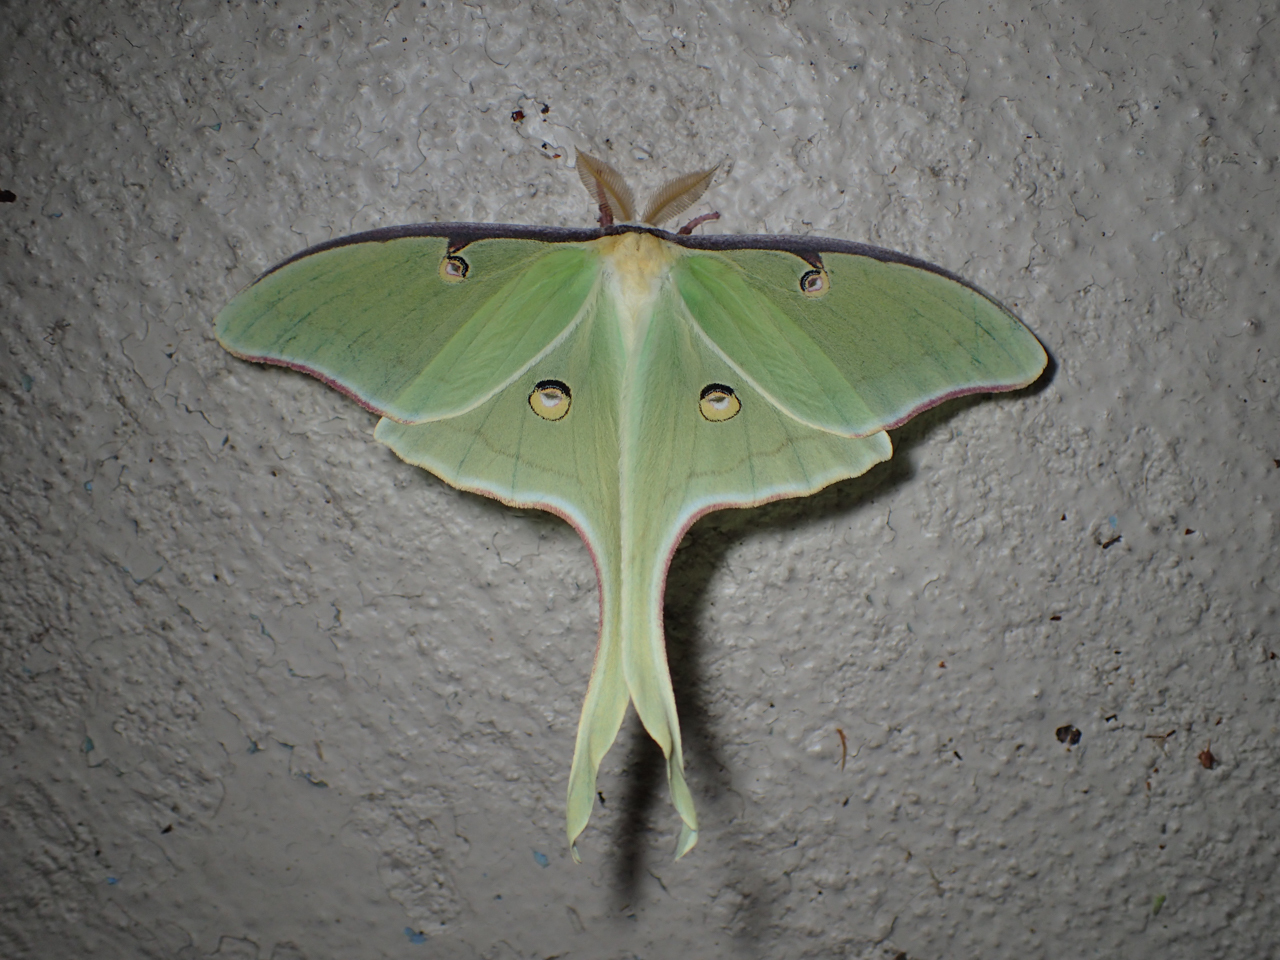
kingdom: Animalia
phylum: Arthropoda
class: Insecta
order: Lepidoptera
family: Saturniidae
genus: Actias
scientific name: Actias luna
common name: Luna moth
